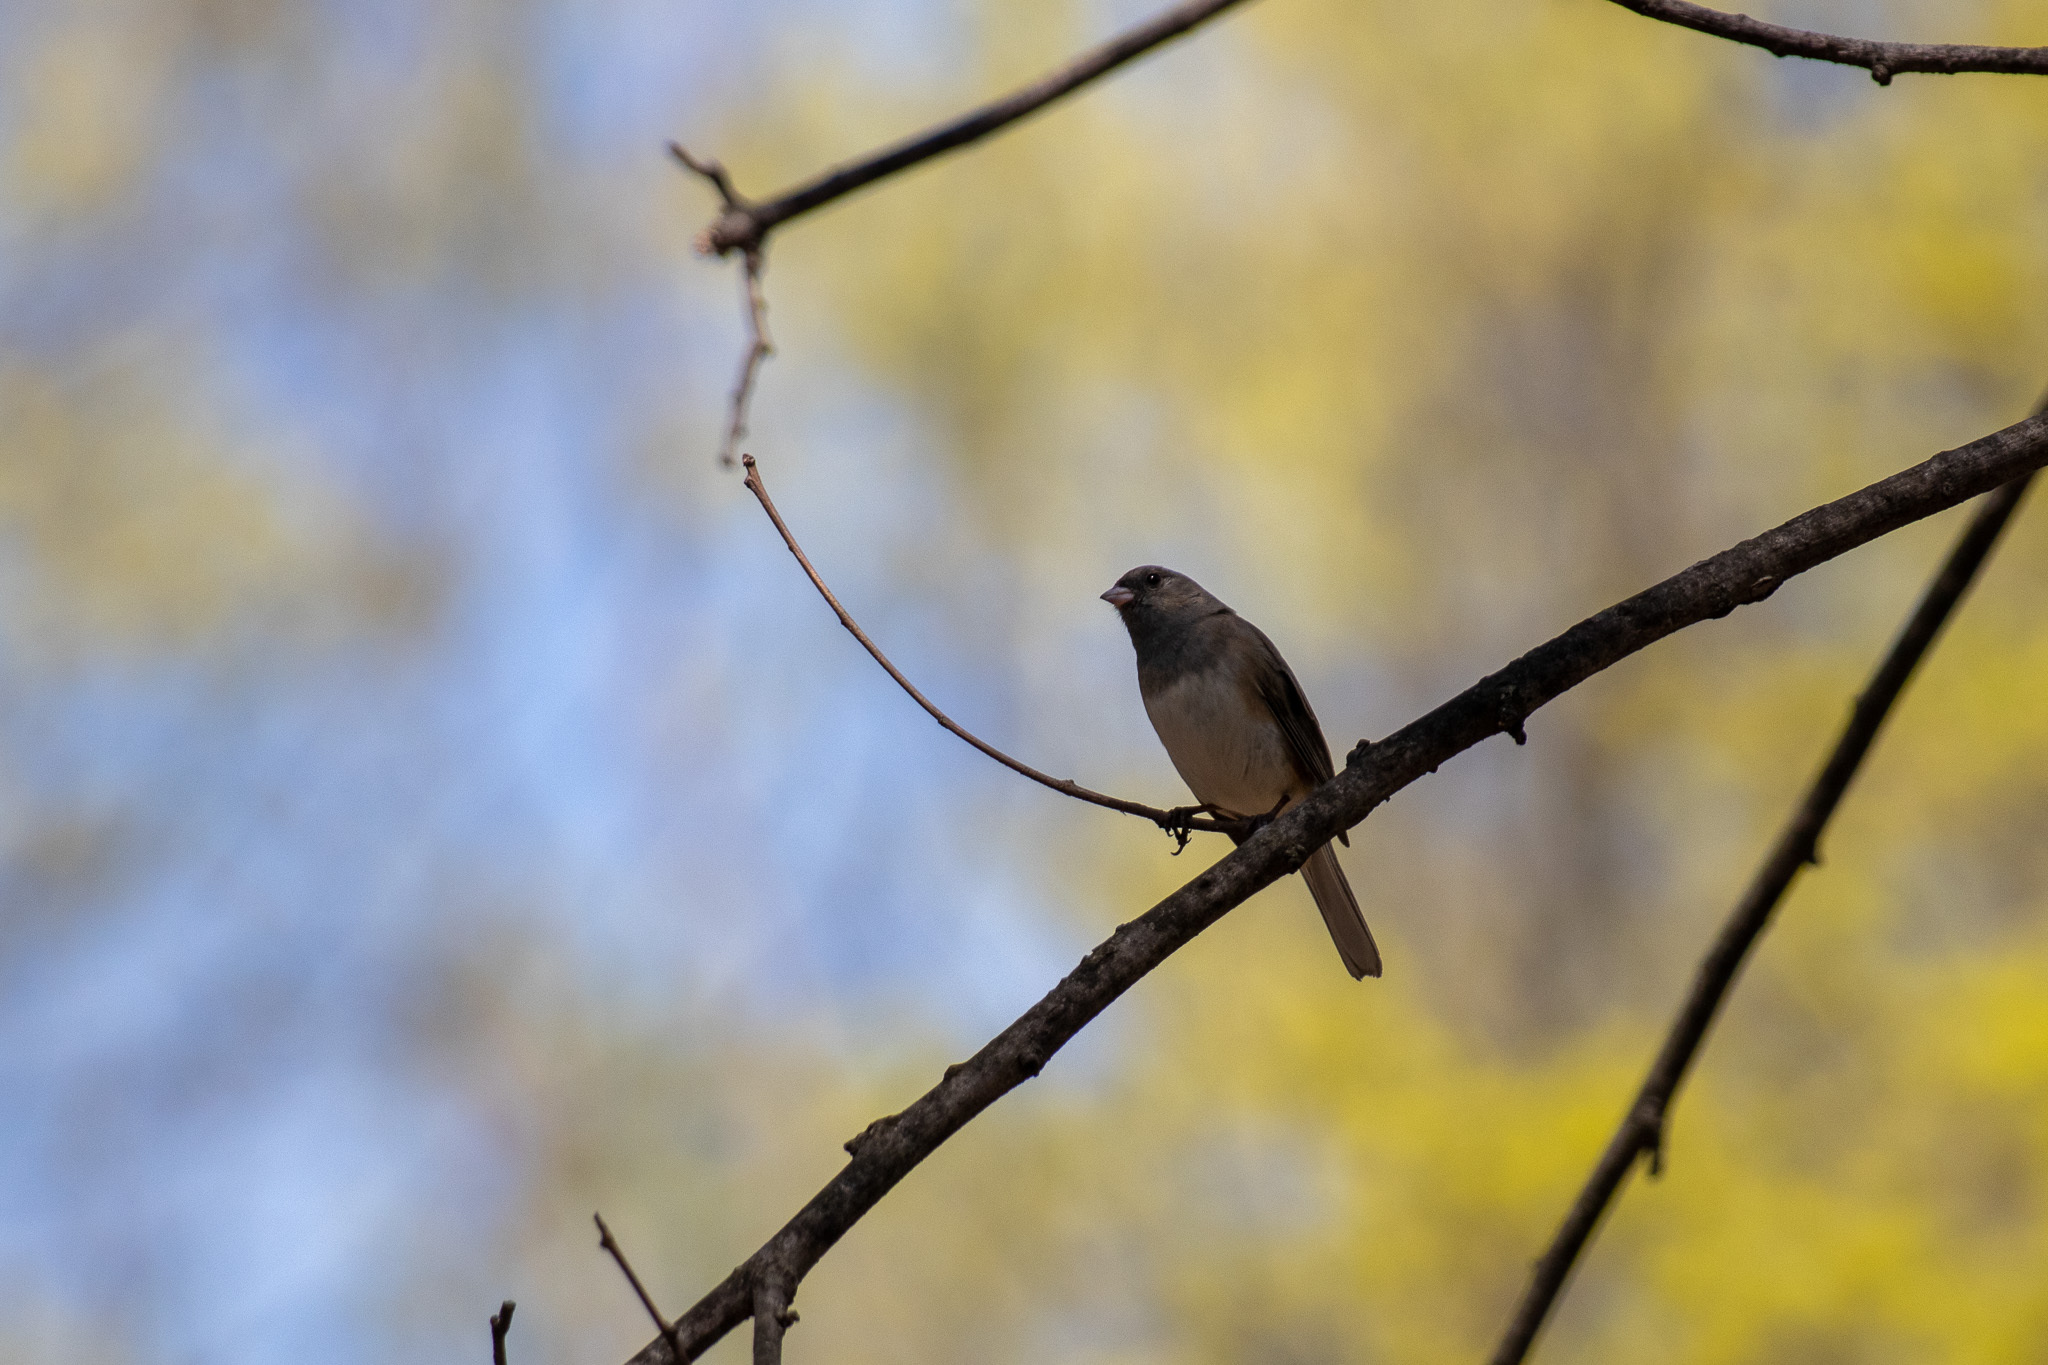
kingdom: Animalia
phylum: Chordata
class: Aves
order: Passeriformes
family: Passerellidae
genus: Junco
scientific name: Junco hyemalis
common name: Dark-eyed junco
